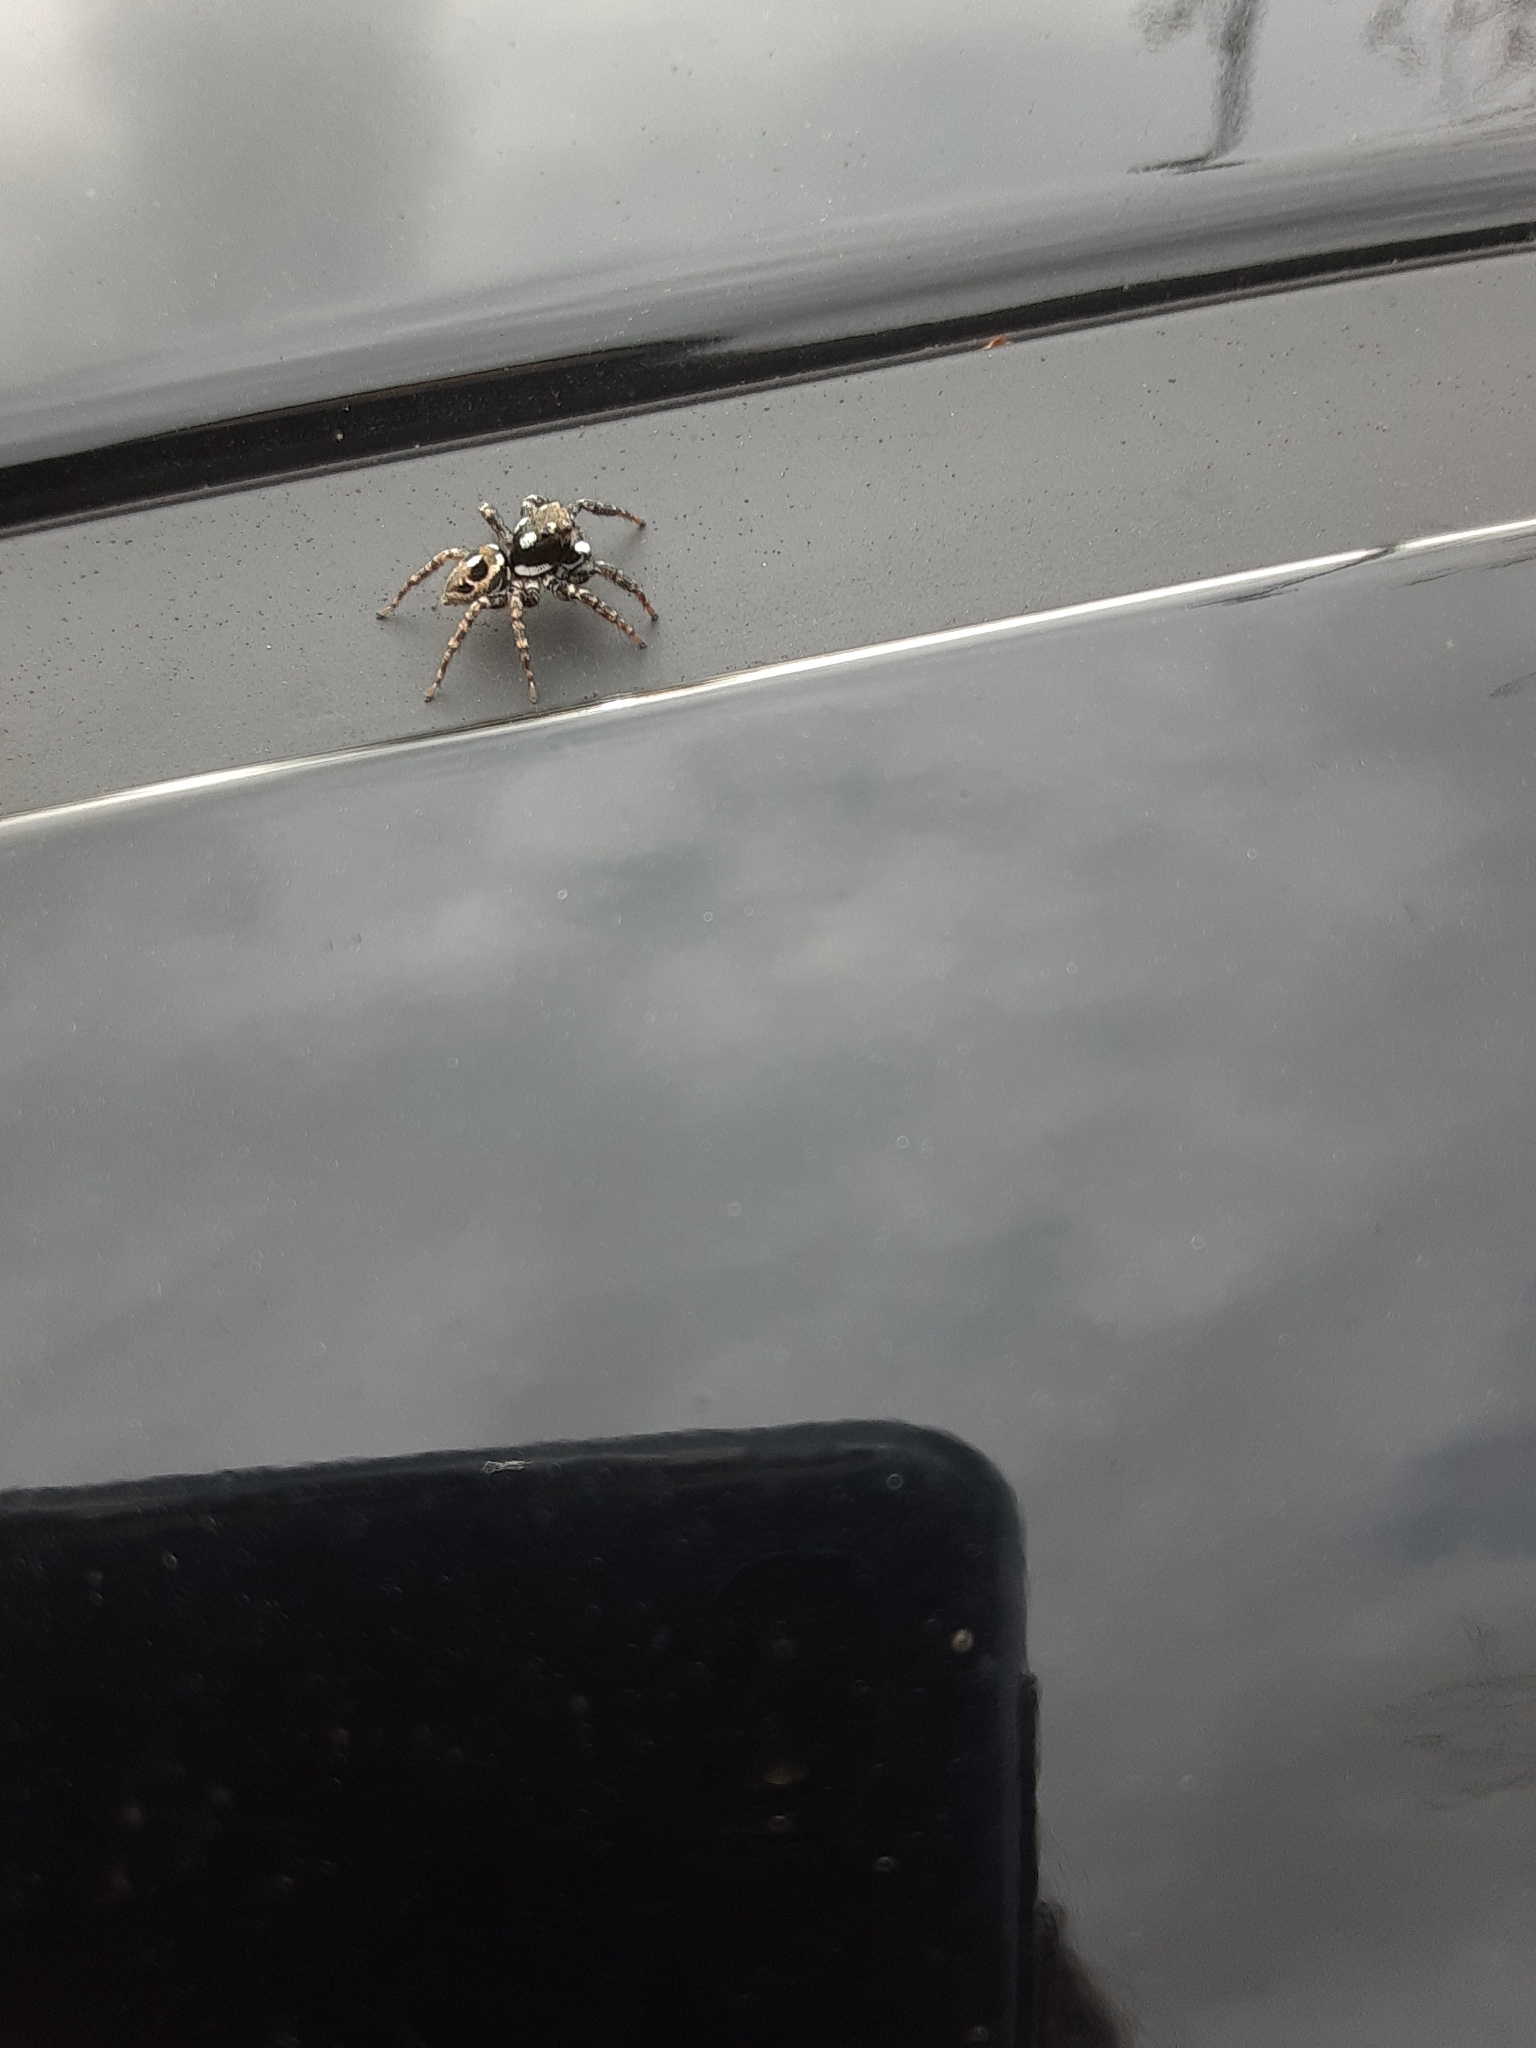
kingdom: Animalia
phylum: Arthropoda
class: Arachnida
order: Araneae
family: Salticidae
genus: Anasaitis
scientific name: Anasaitis canosa
